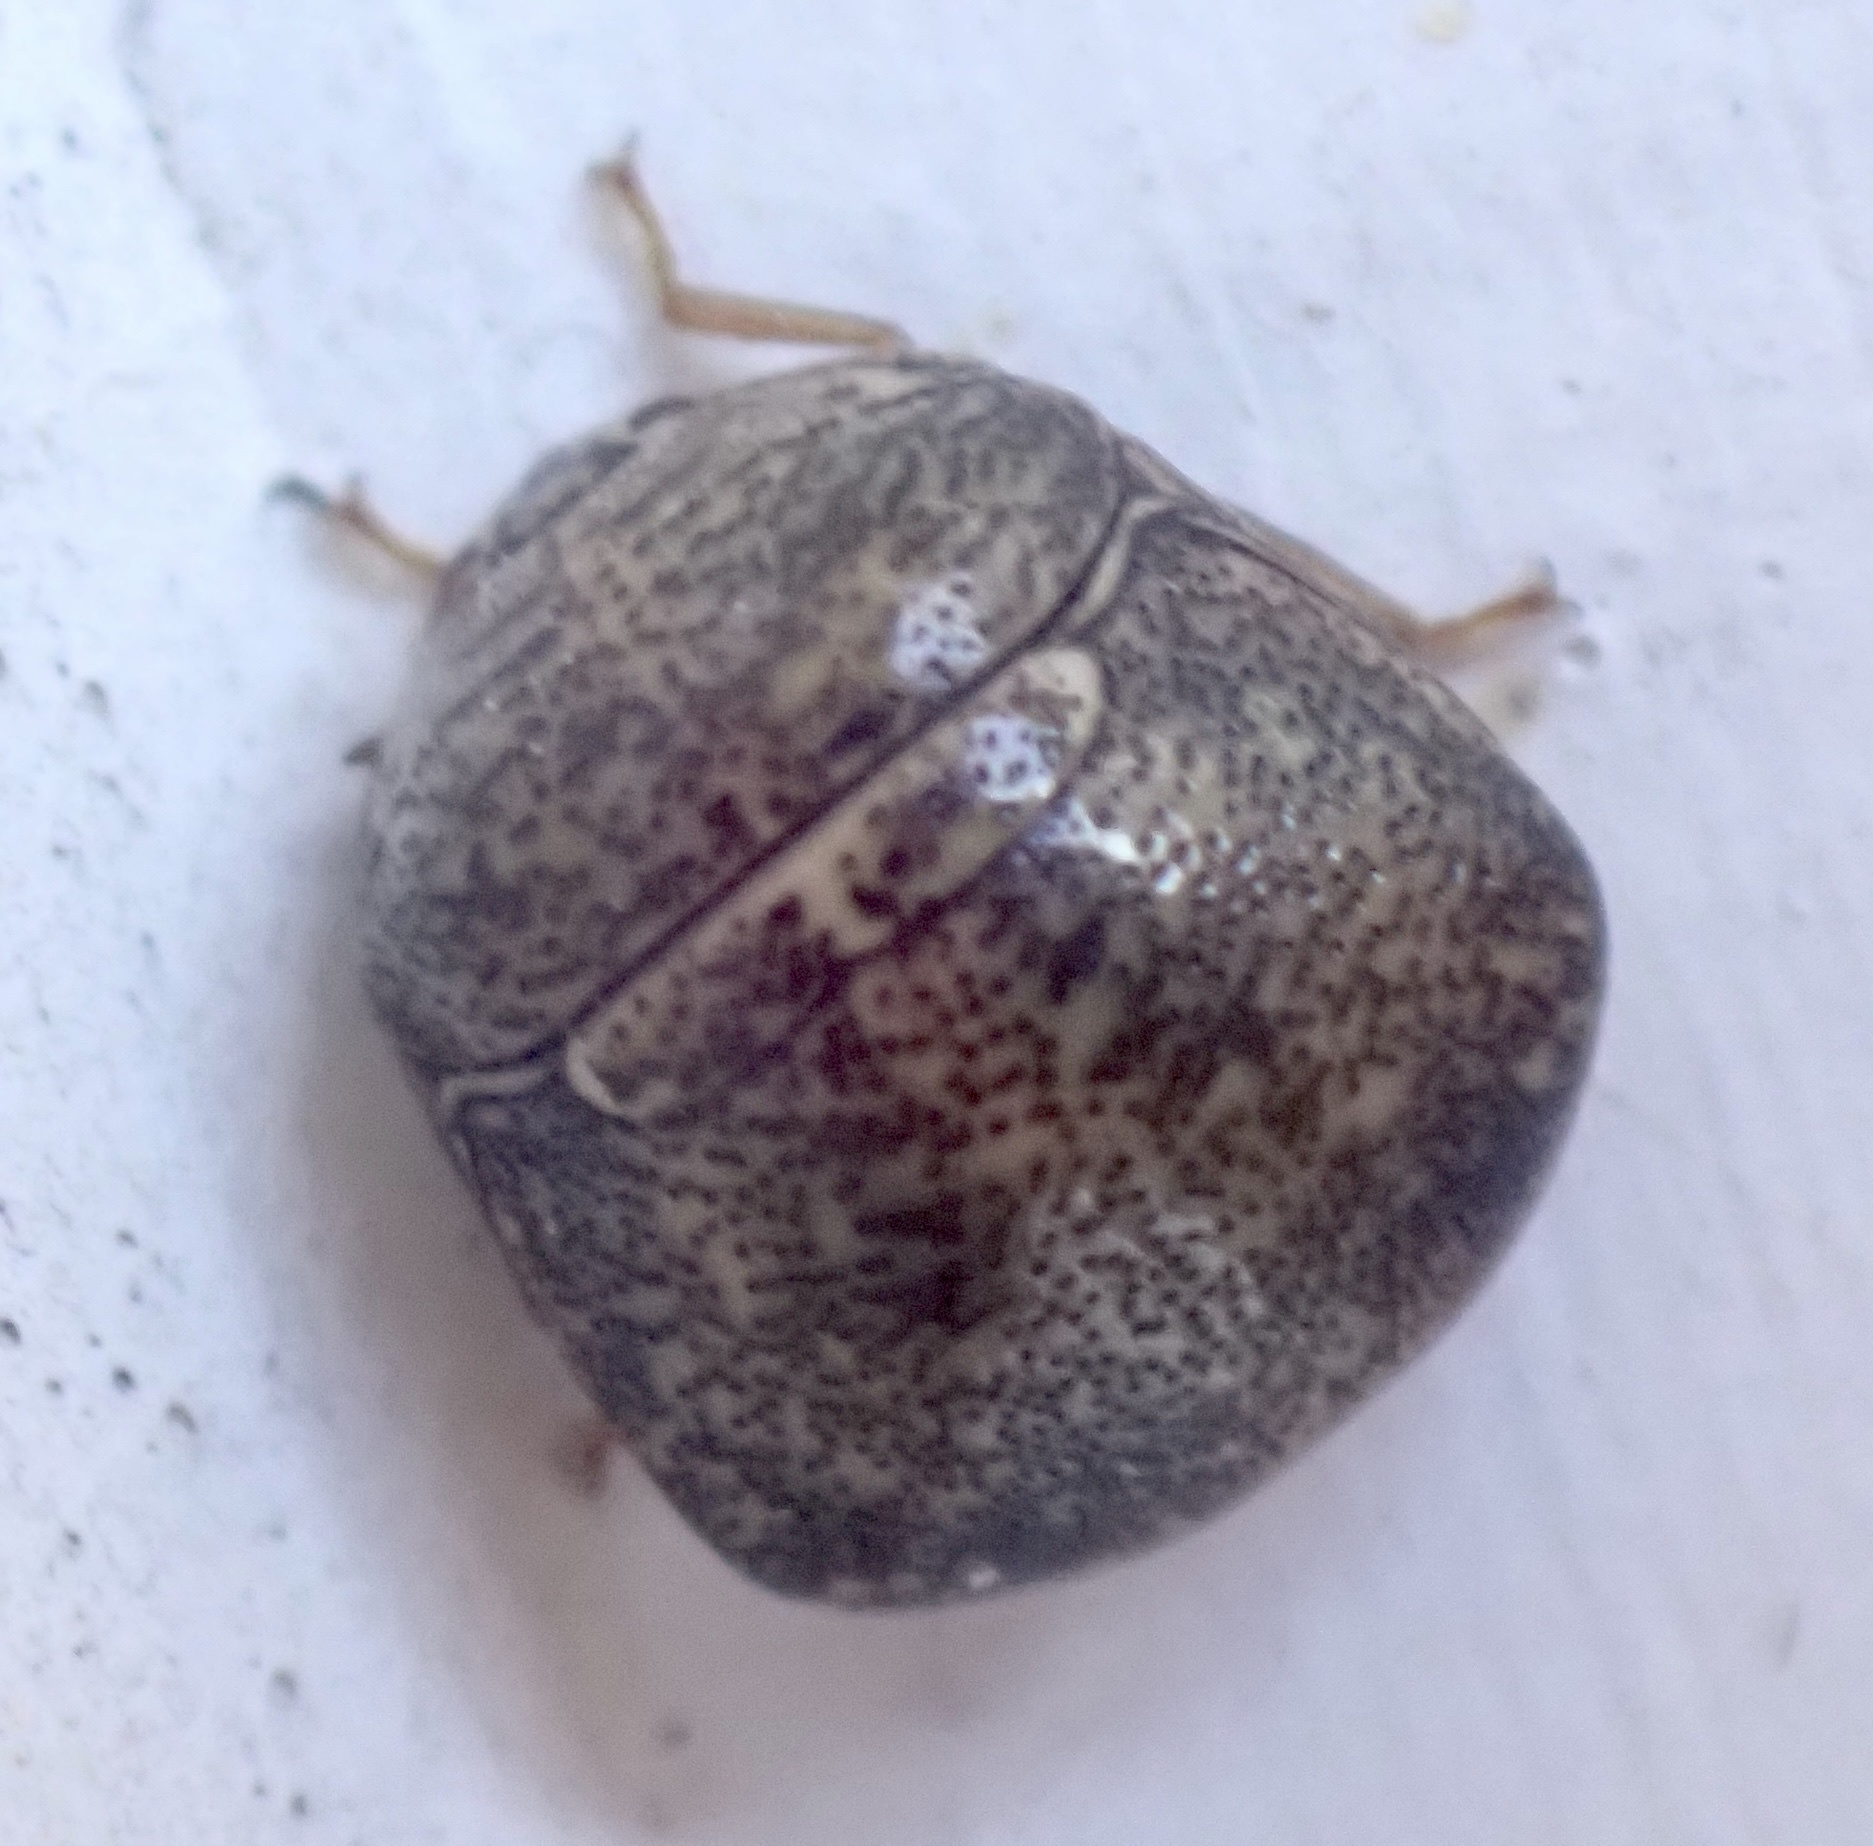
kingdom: Animalia
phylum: Arthropoda
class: Insecta
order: Hemiptera
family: Plataspidae
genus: Megacopta
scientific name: Megacopta cribraria
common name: Bean plataspid
